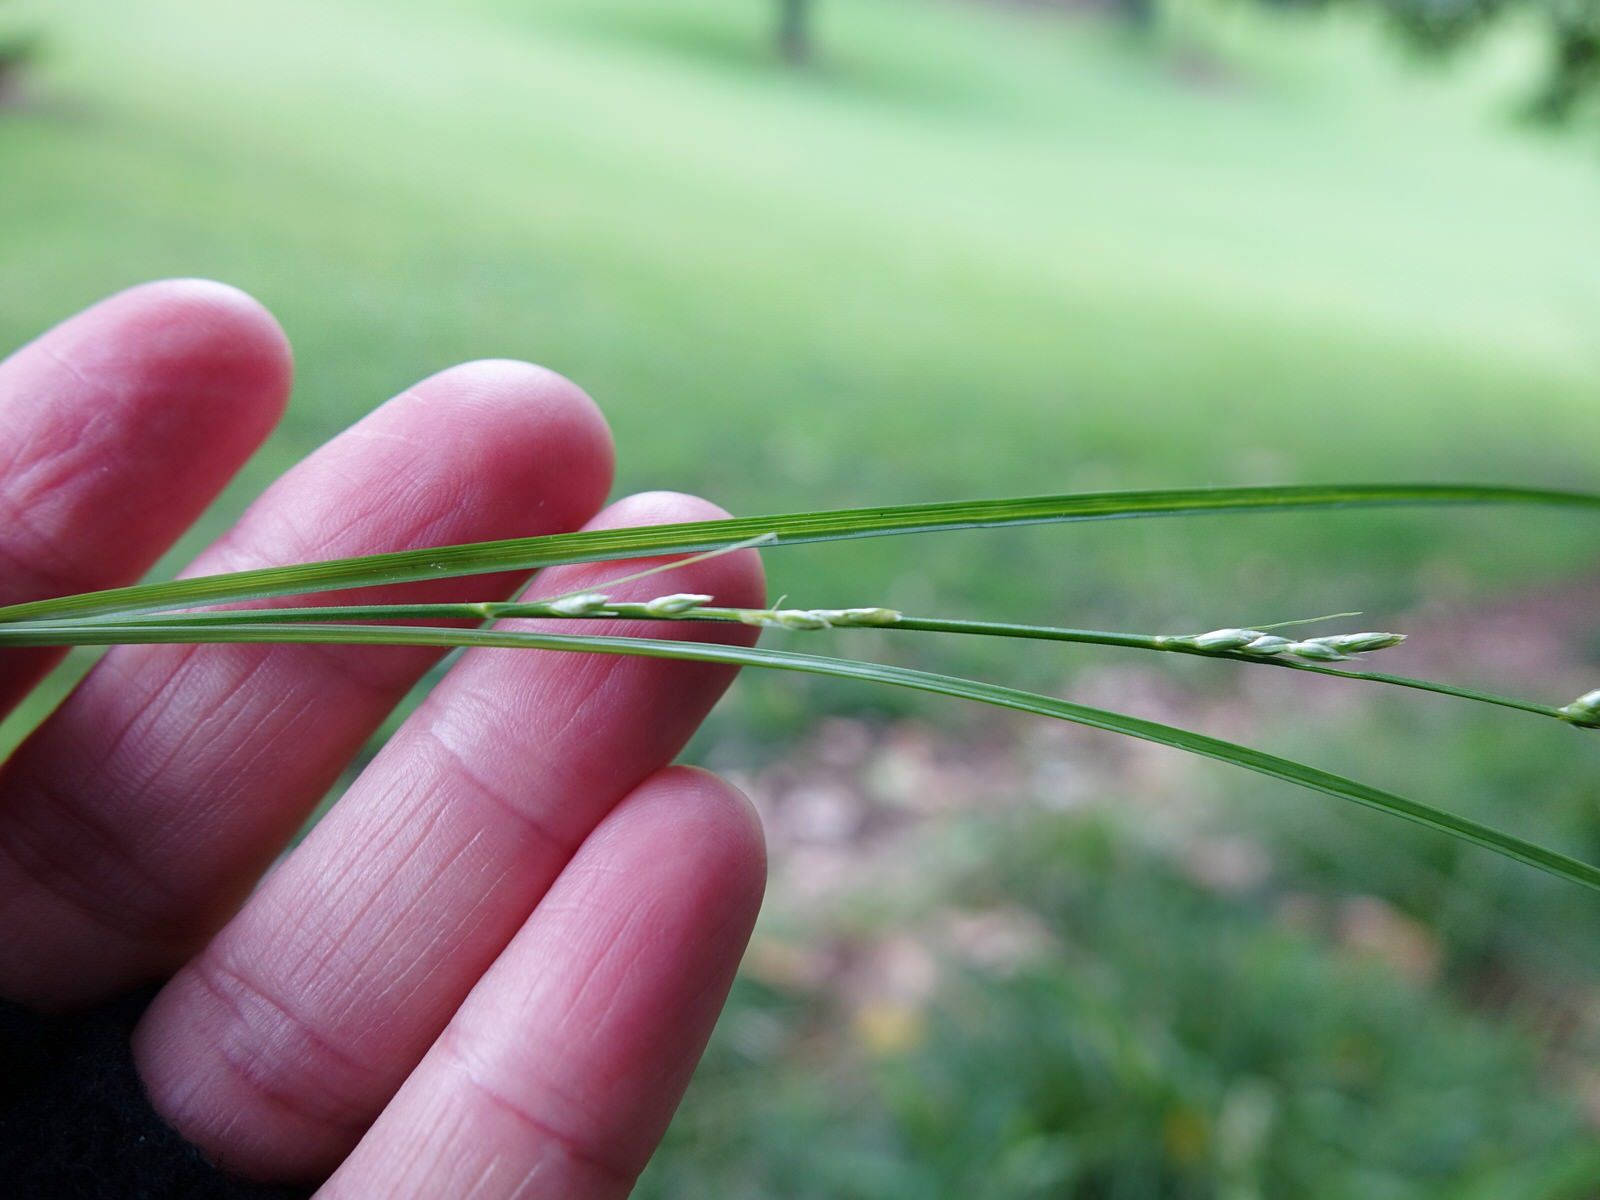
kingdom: Plantae
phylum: Tracheophyta
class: Liliopsida
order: Poales
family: Cyperaceae
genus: Carex
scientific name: Carex divulsa
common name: Grassland sedge
